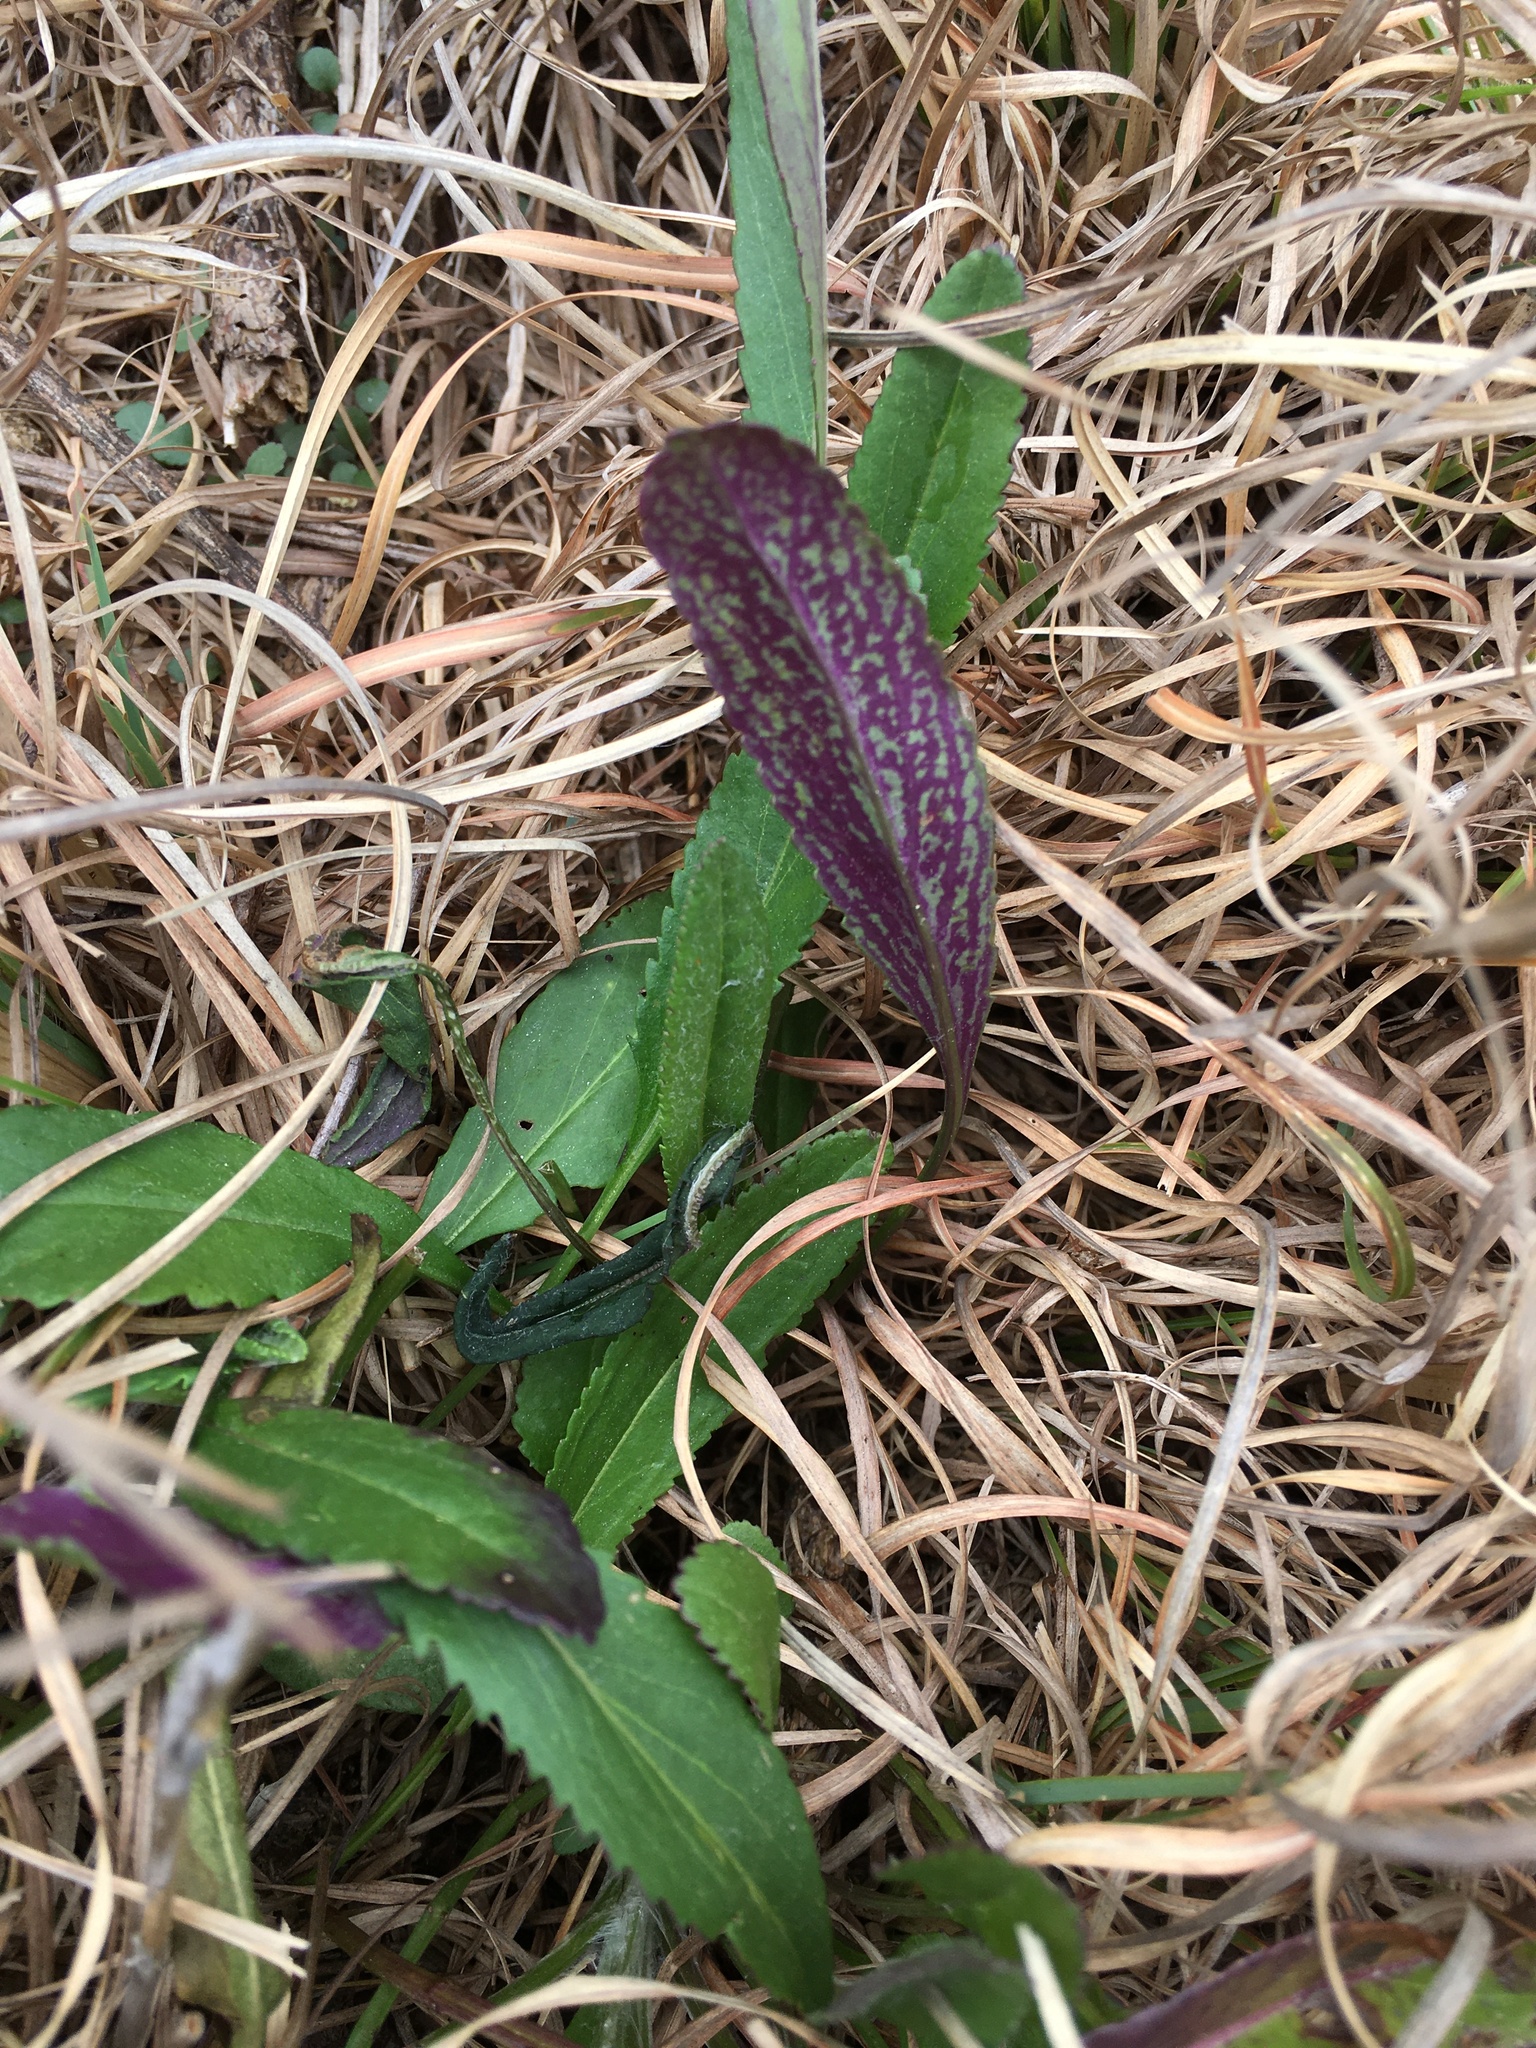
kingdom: Plantae
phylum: Tracheophyta
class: Magnoliopsida
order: Asterales
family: Asteraceae
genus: Packera
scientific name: Packera anonyma
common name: Small ragwort
